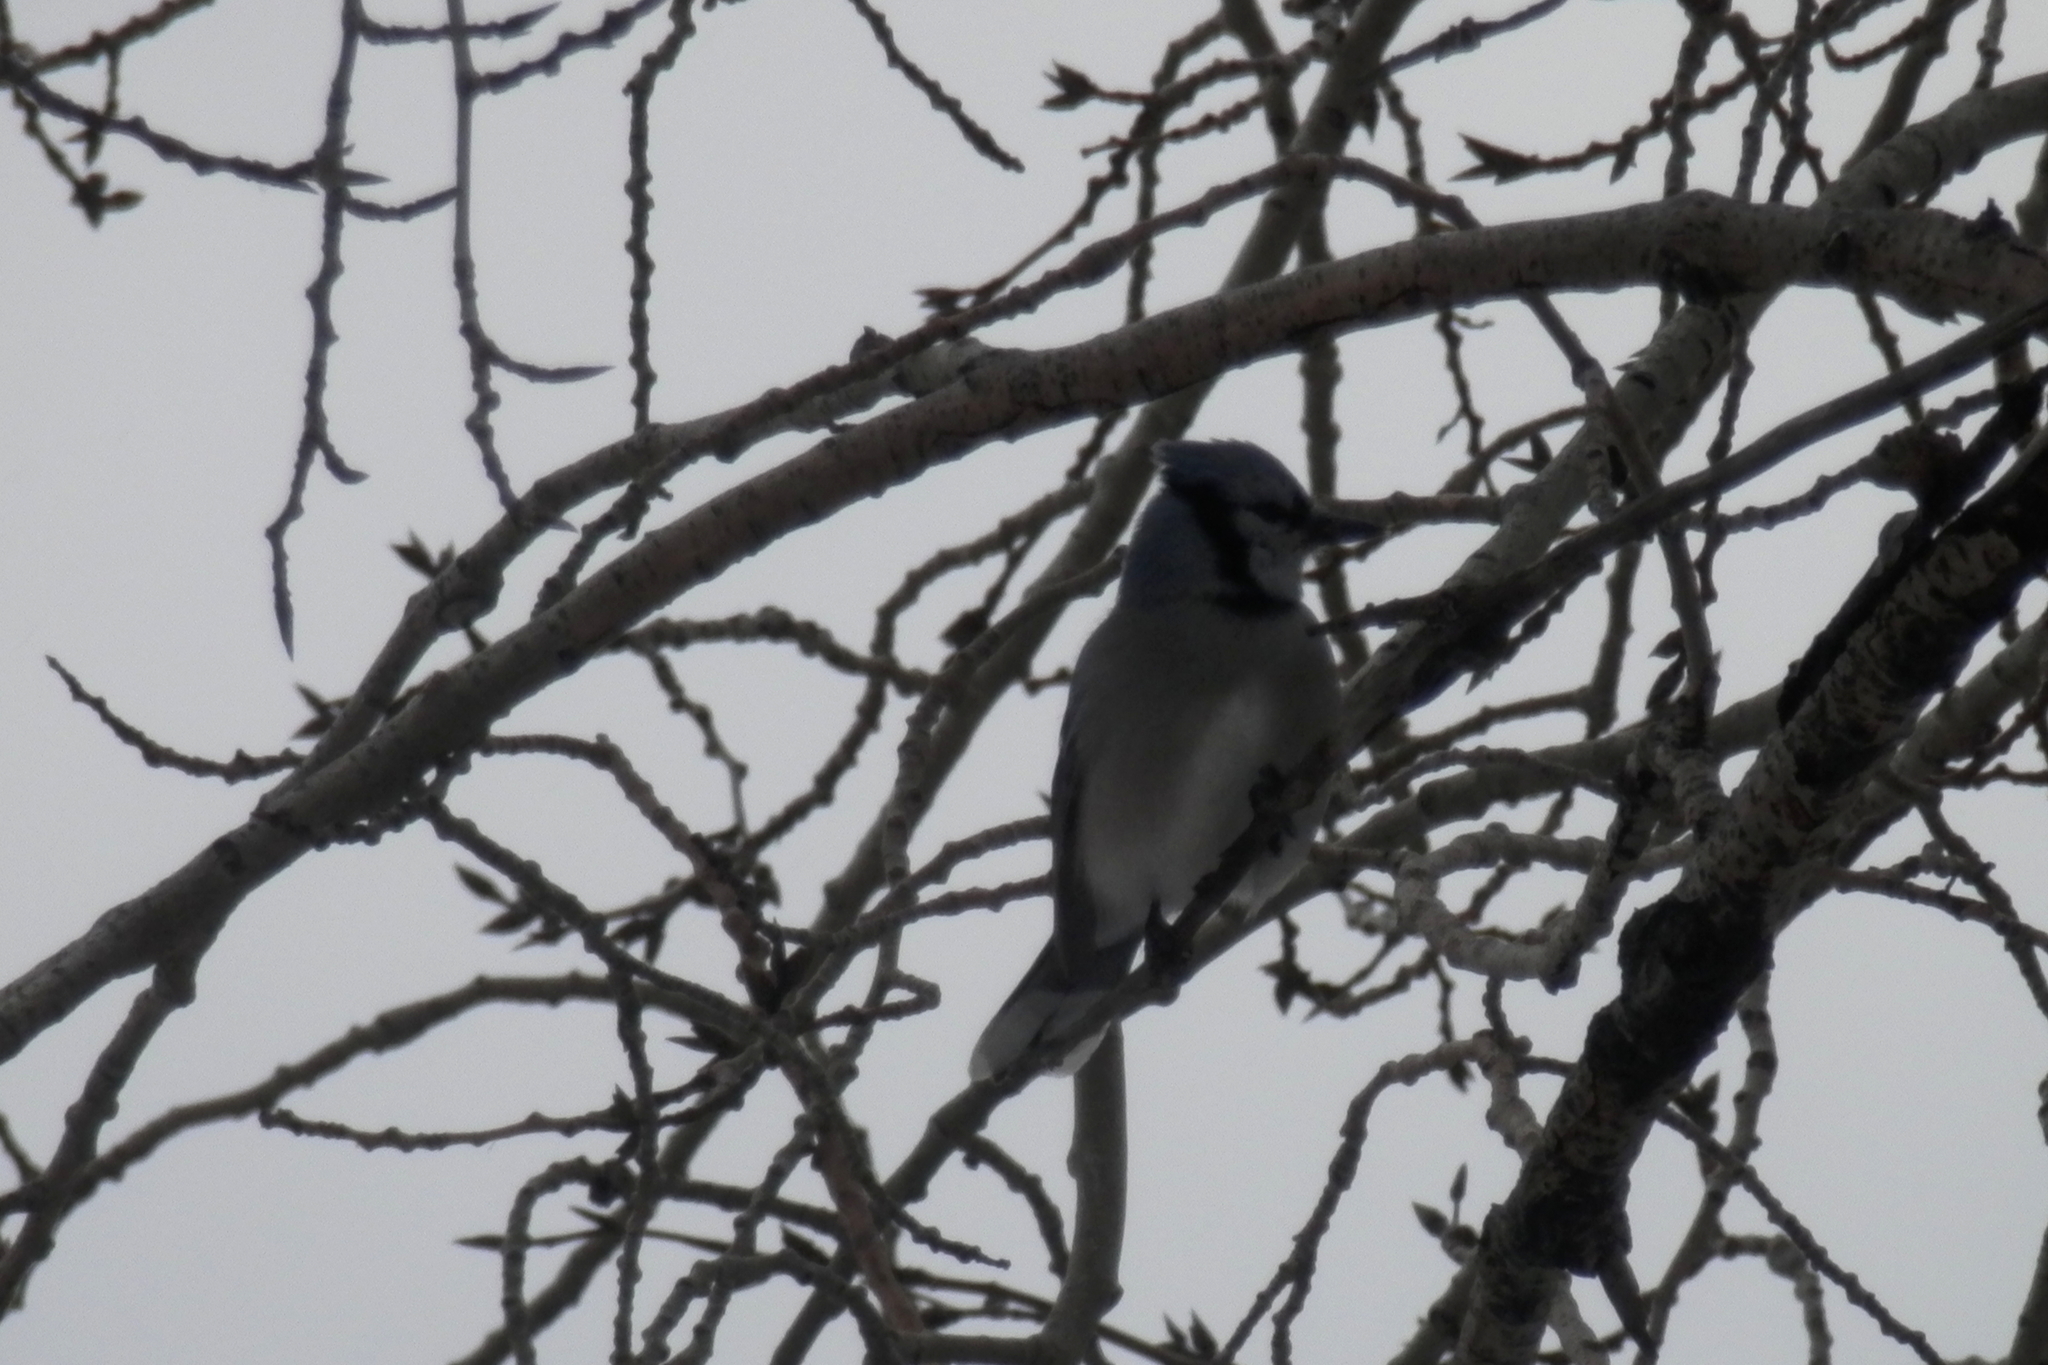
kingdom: Animalia
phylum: Chordata
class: Aves
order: Passeriformes
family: Corvidae
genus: Cyanocitta
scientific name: Cyanocitta cristata
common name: Blue jay
